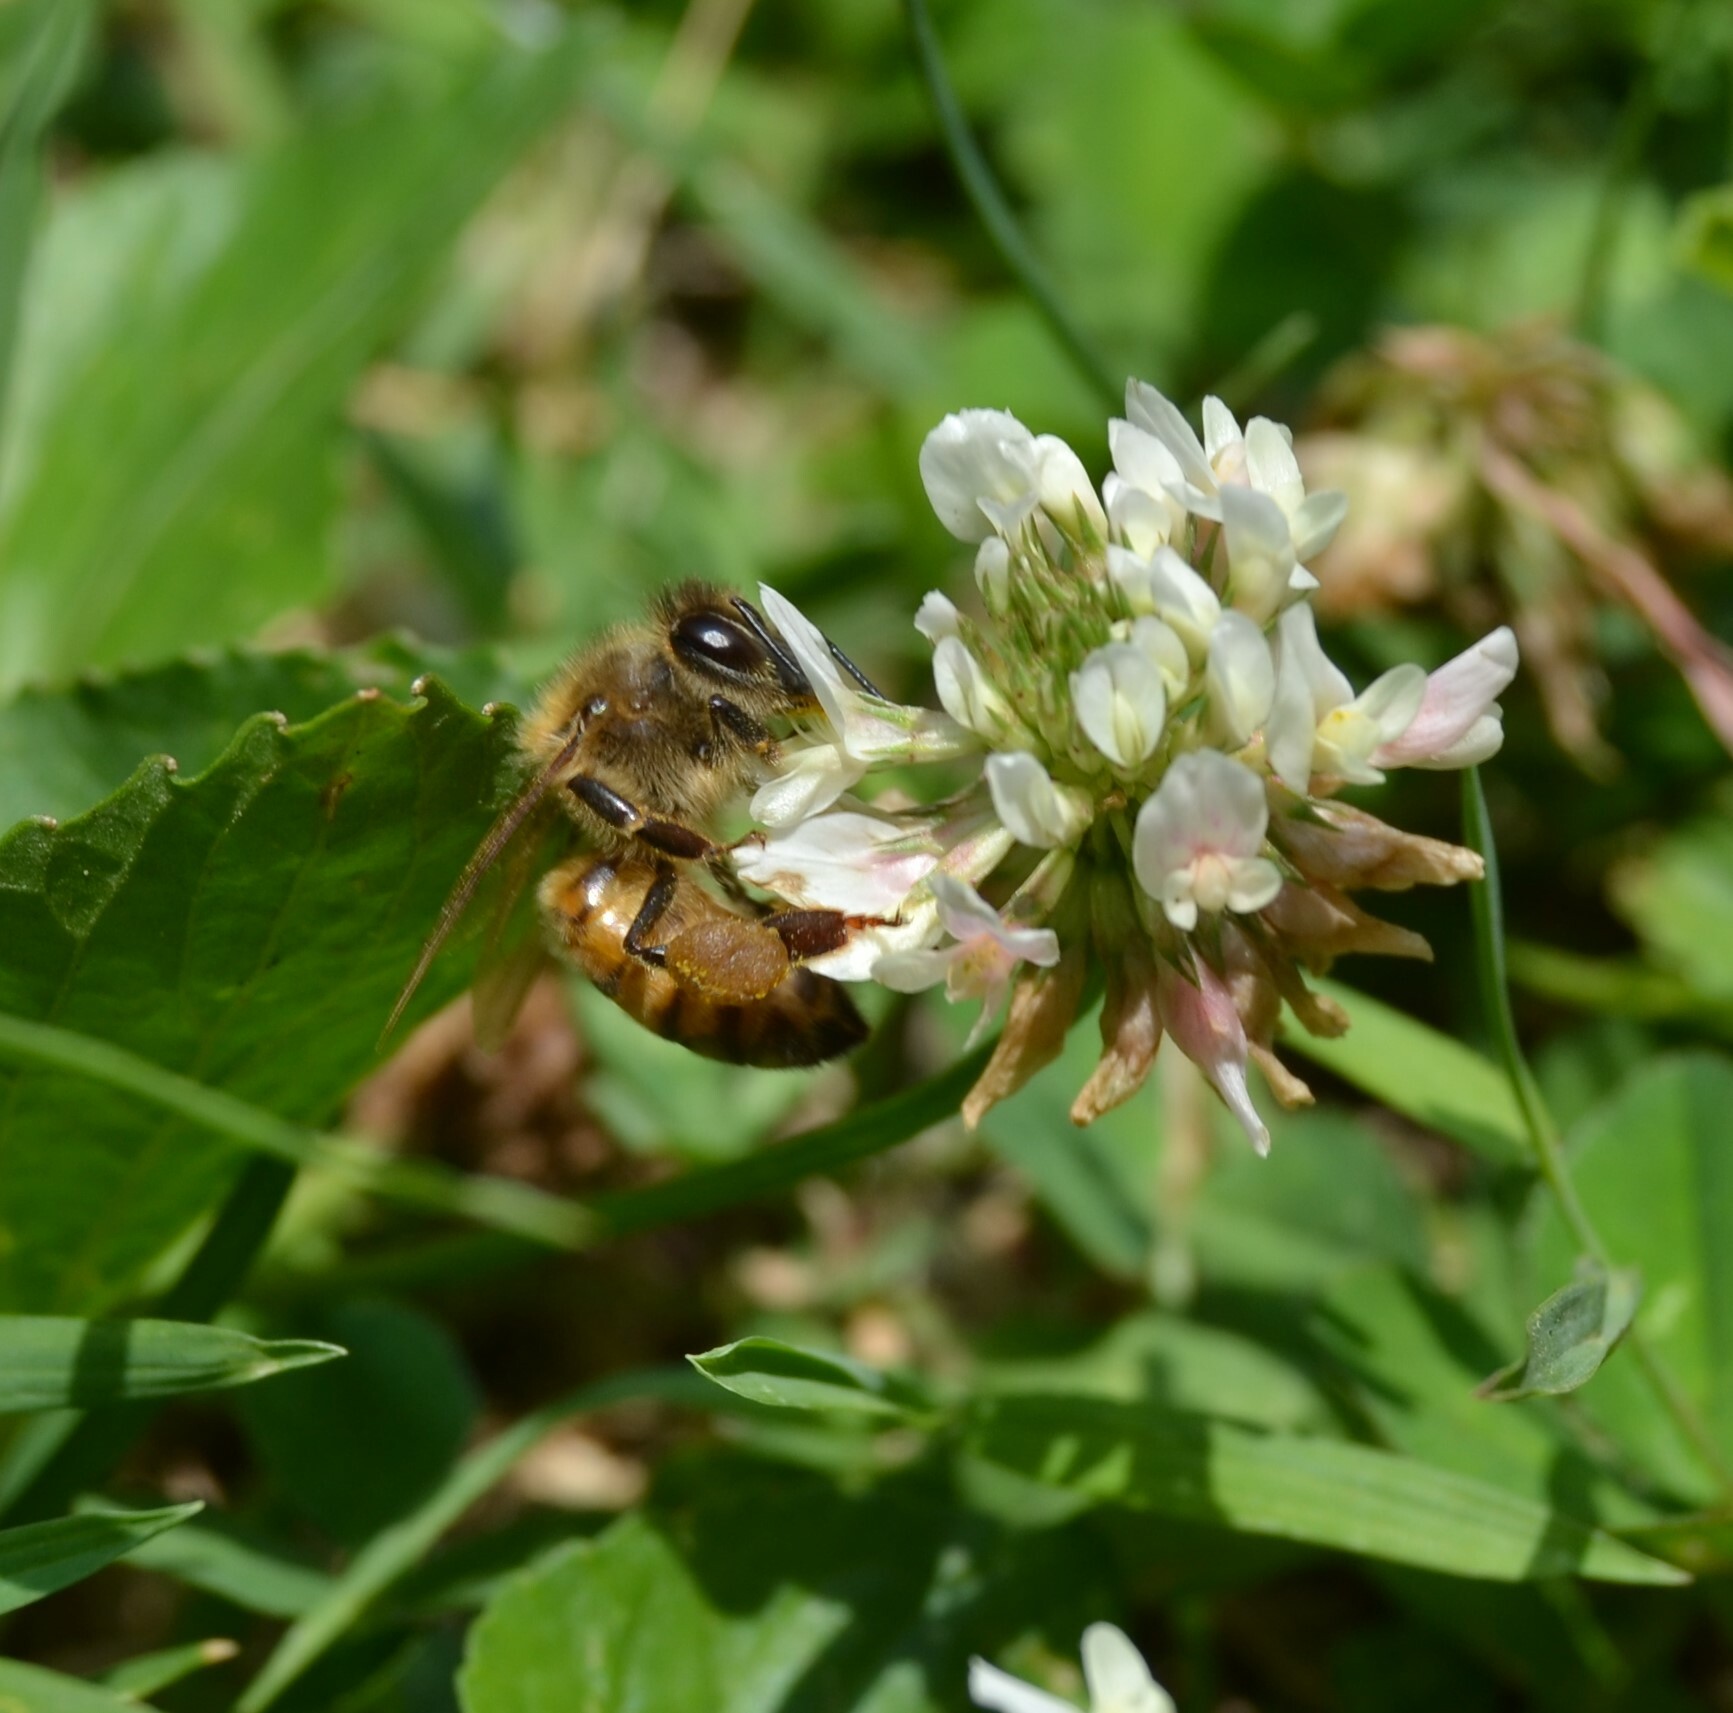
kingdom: Animalia
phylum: Arthropoda
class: Insecta
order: Hymenoptera
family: Apidae
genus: Apis
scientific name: Apis mellifera
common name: Honey bee
